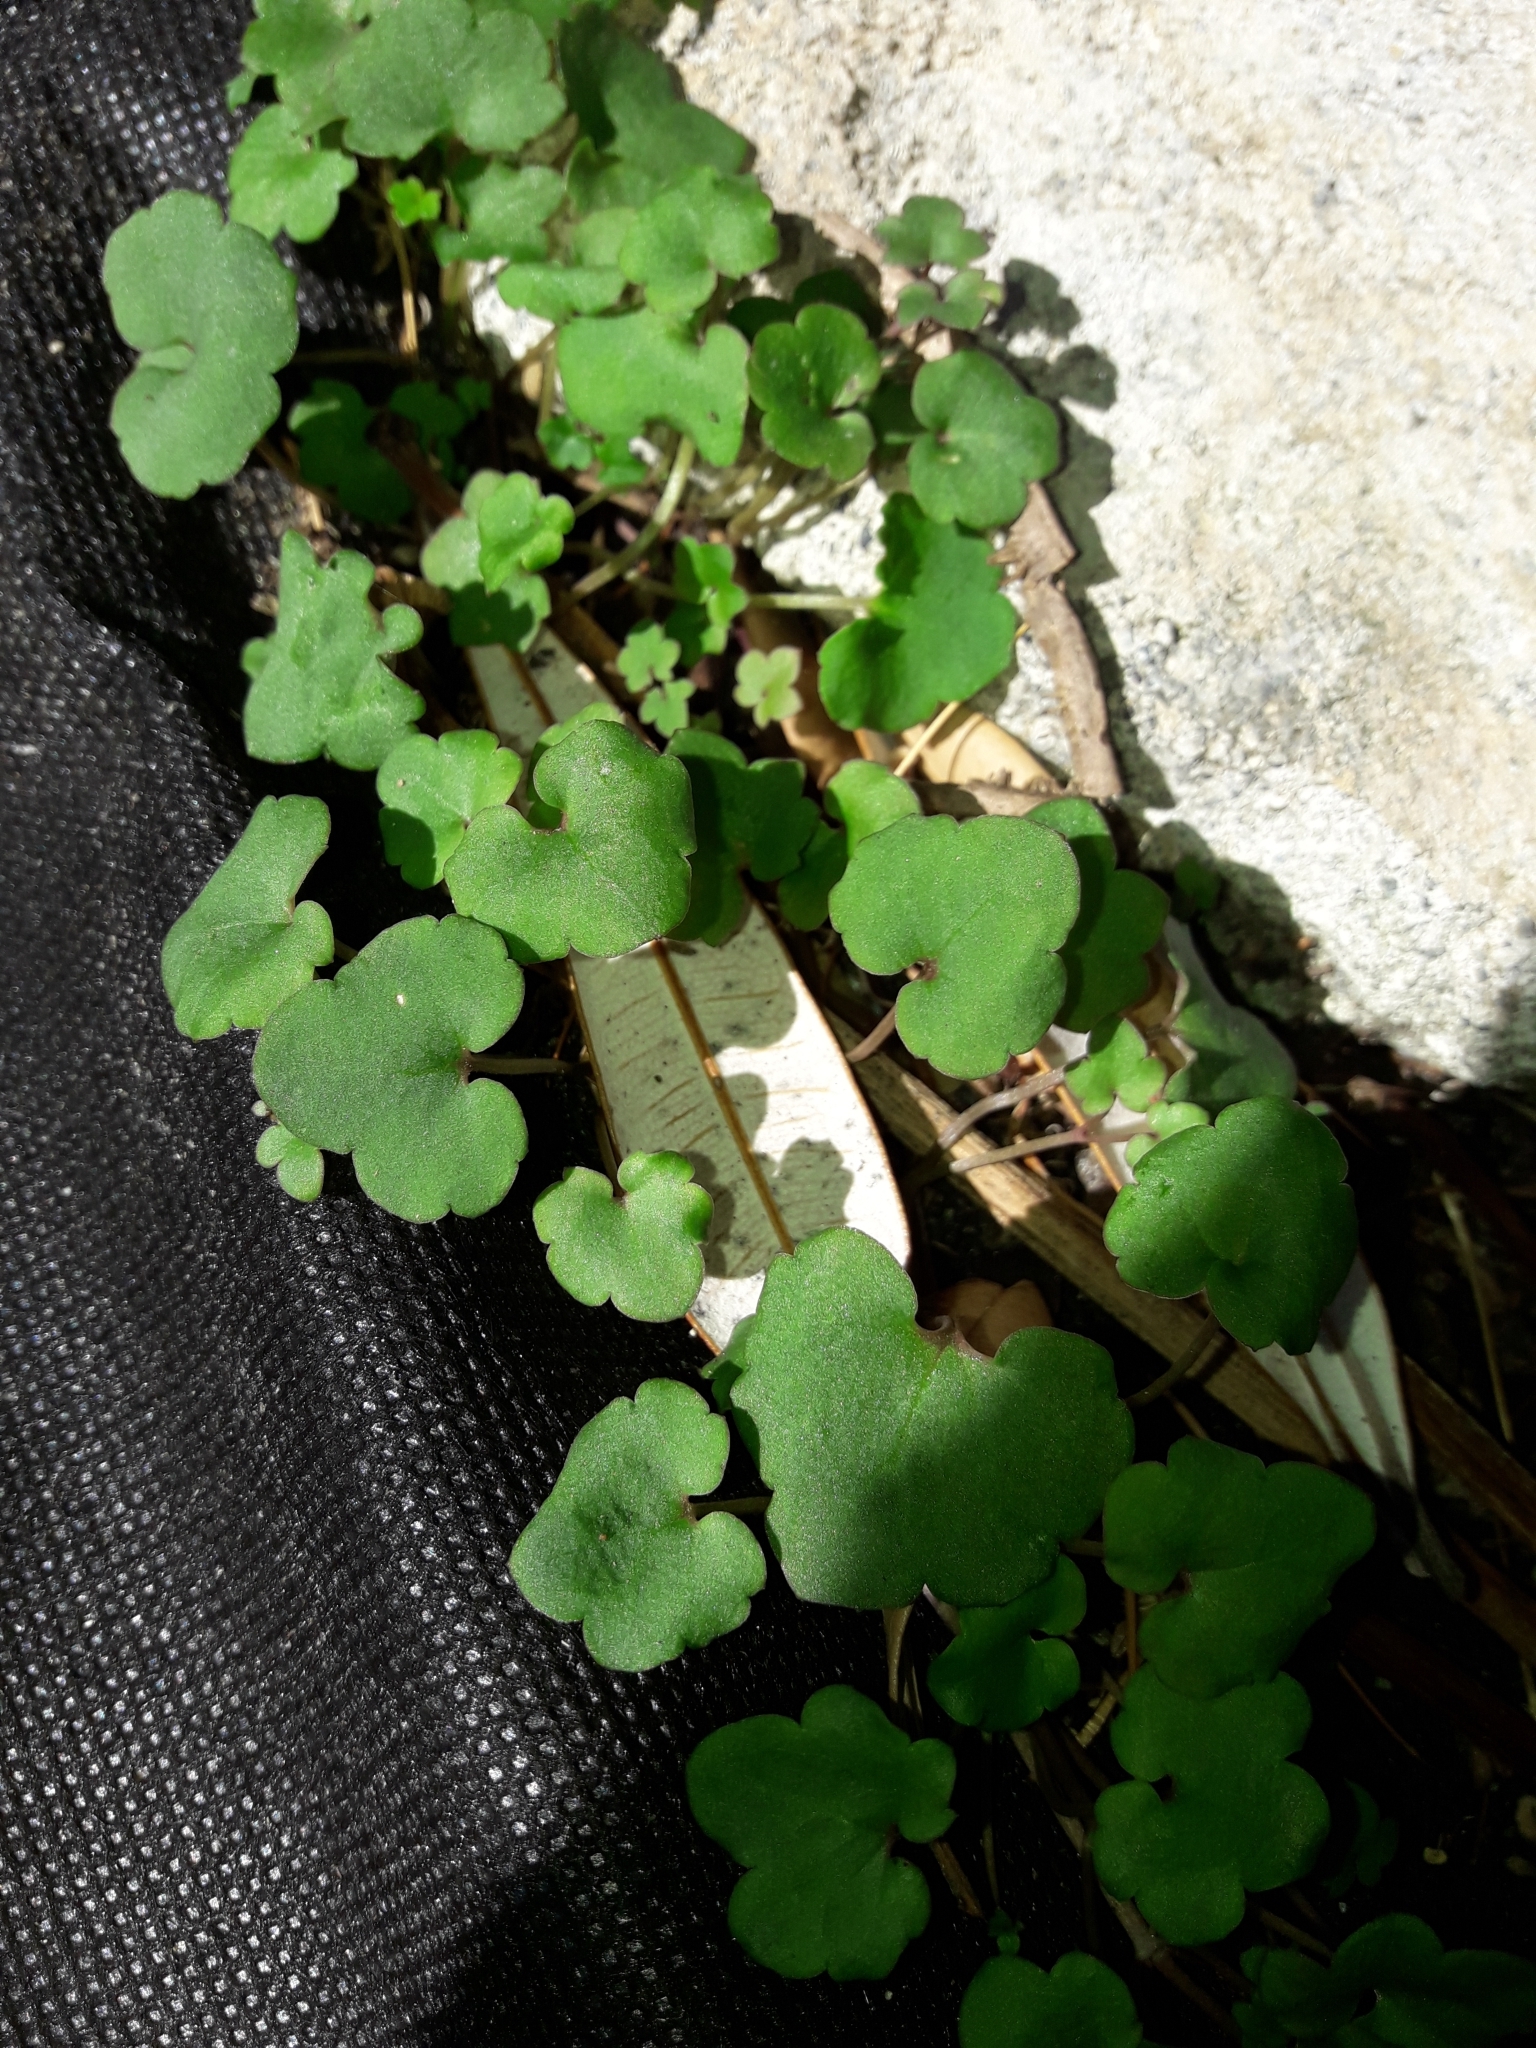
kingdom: Plantae
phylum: Tracheophyta
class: Magnoliopsida
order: Lamiales
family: Plantaginaceae
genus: Cymbalaria
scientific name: Cymbalaria muralis
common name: Ivy-leaved toadflax
